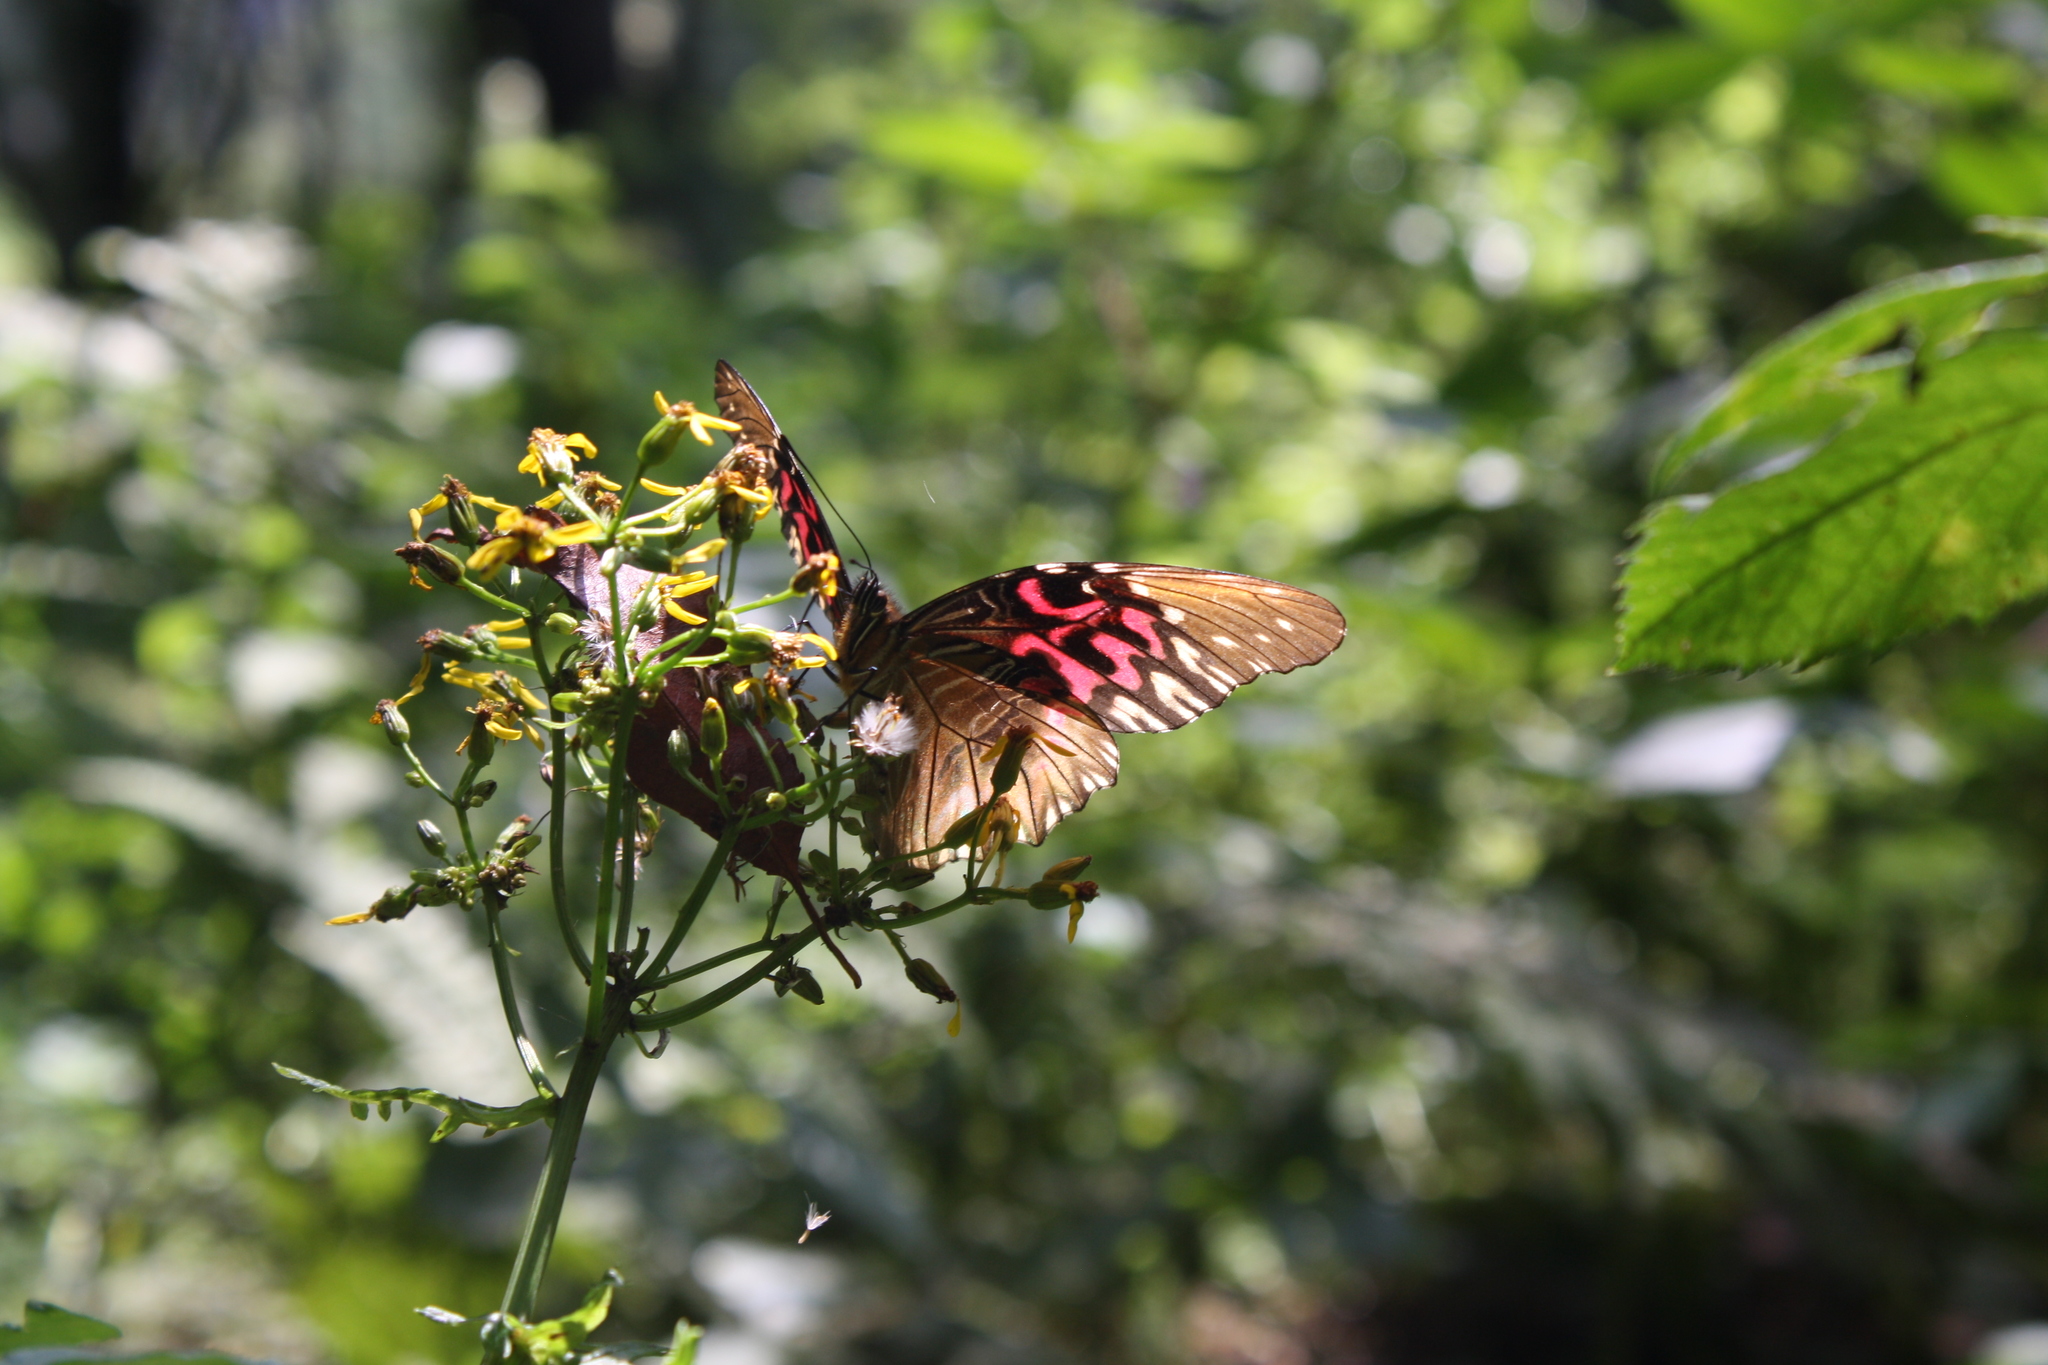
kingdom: Animalia
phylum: Arthropoda
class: Insecta
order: Lepidoptera
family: Nymphalidae
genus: Anetia
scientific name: Anetia thirza
